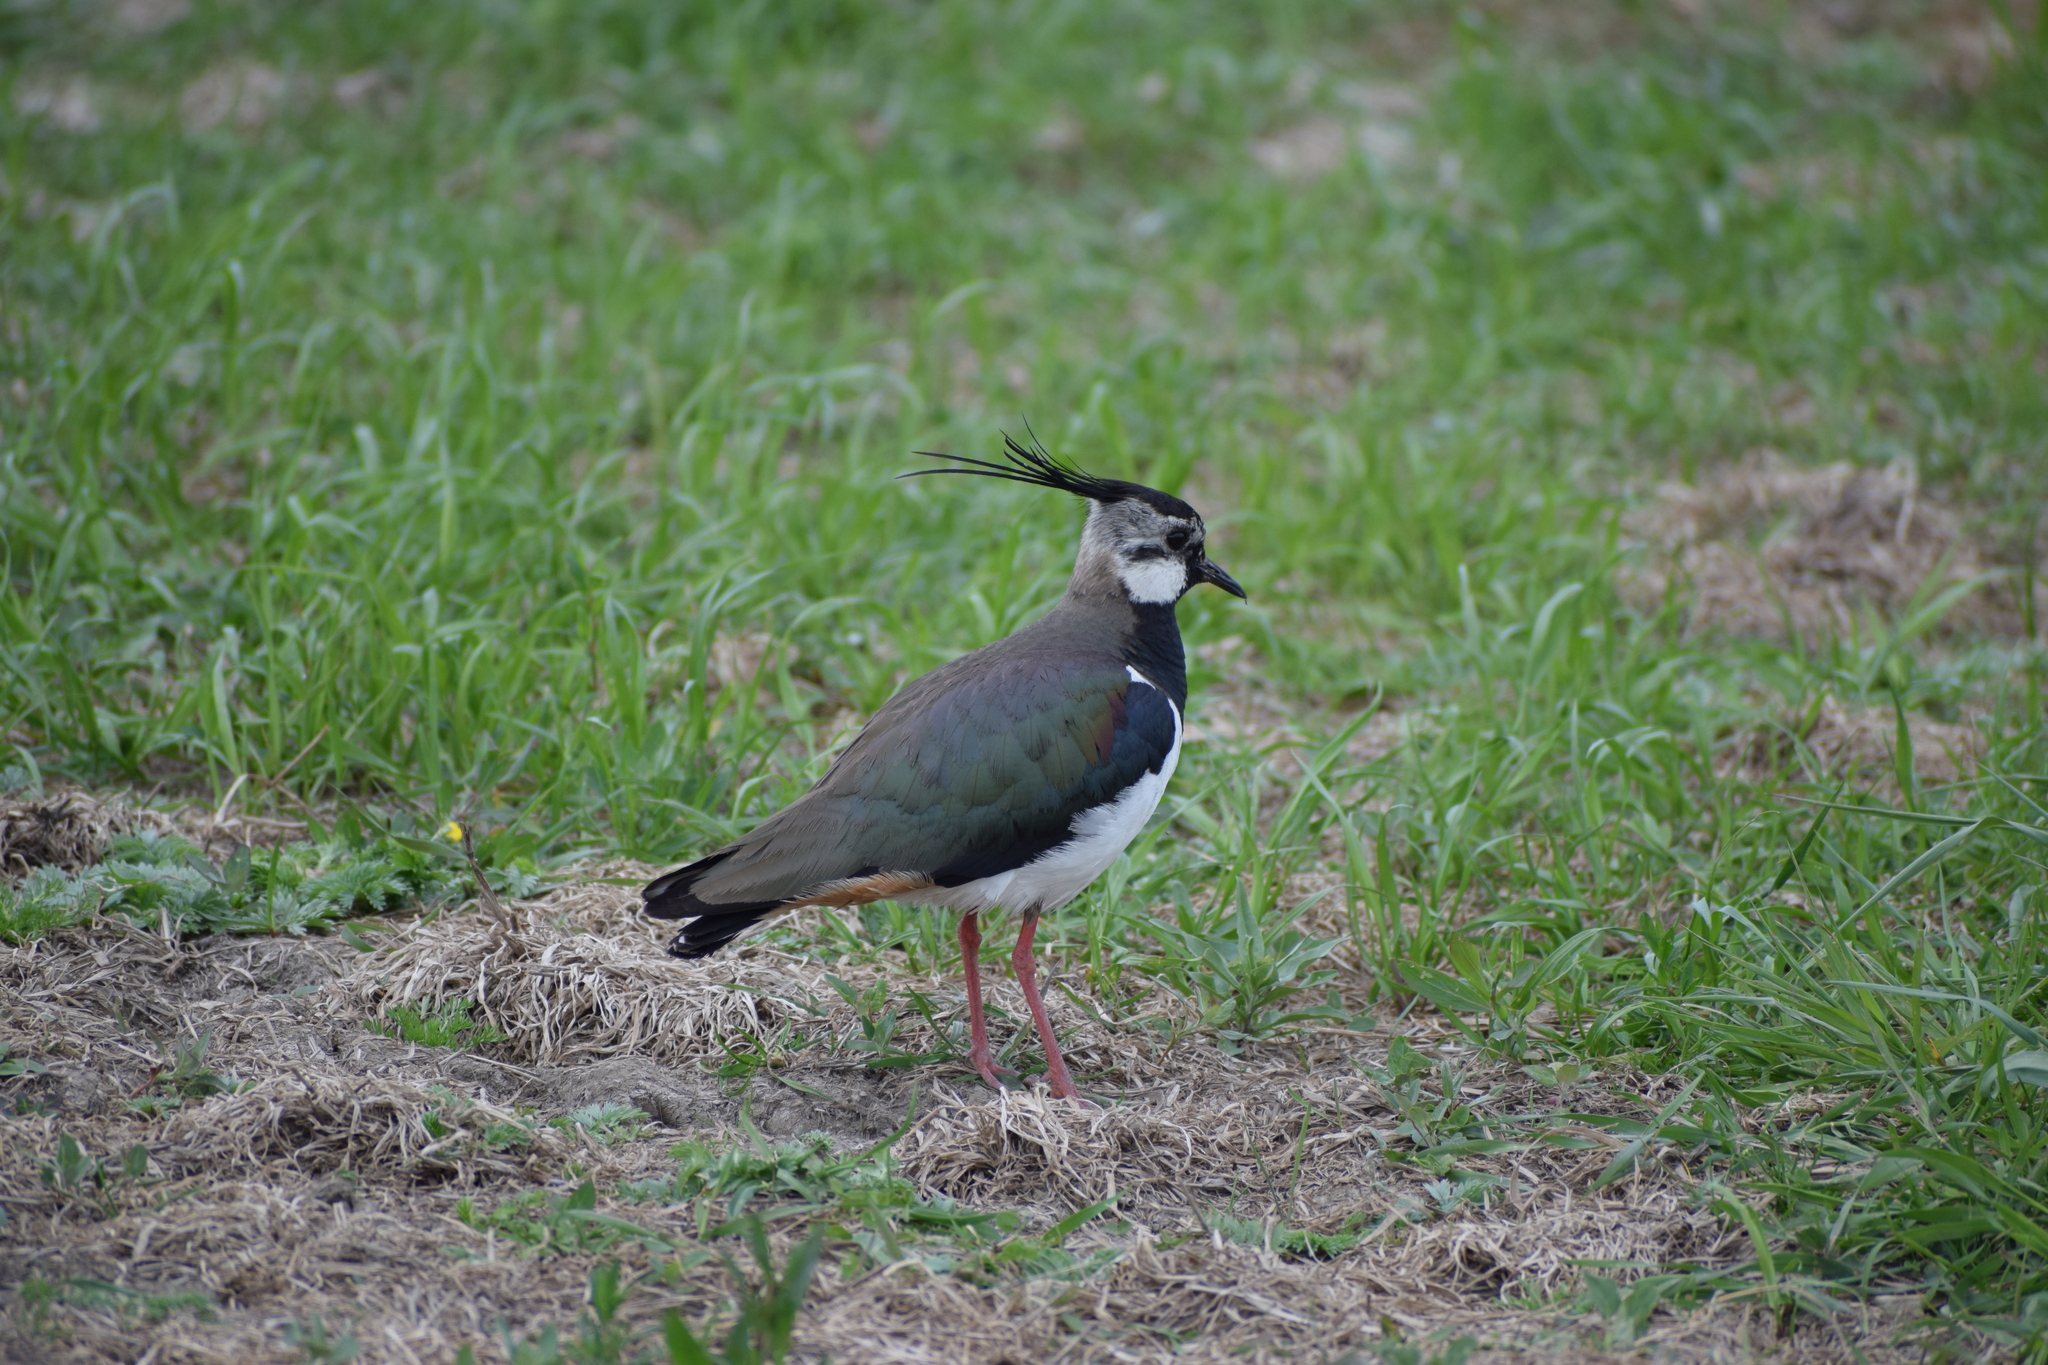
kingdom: Animalia
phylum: Chordata
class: Aves
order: Charadriiformes
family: Charadriidae
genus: Vanellus
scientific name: Vanellus vanellus
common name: Northern lapwing
